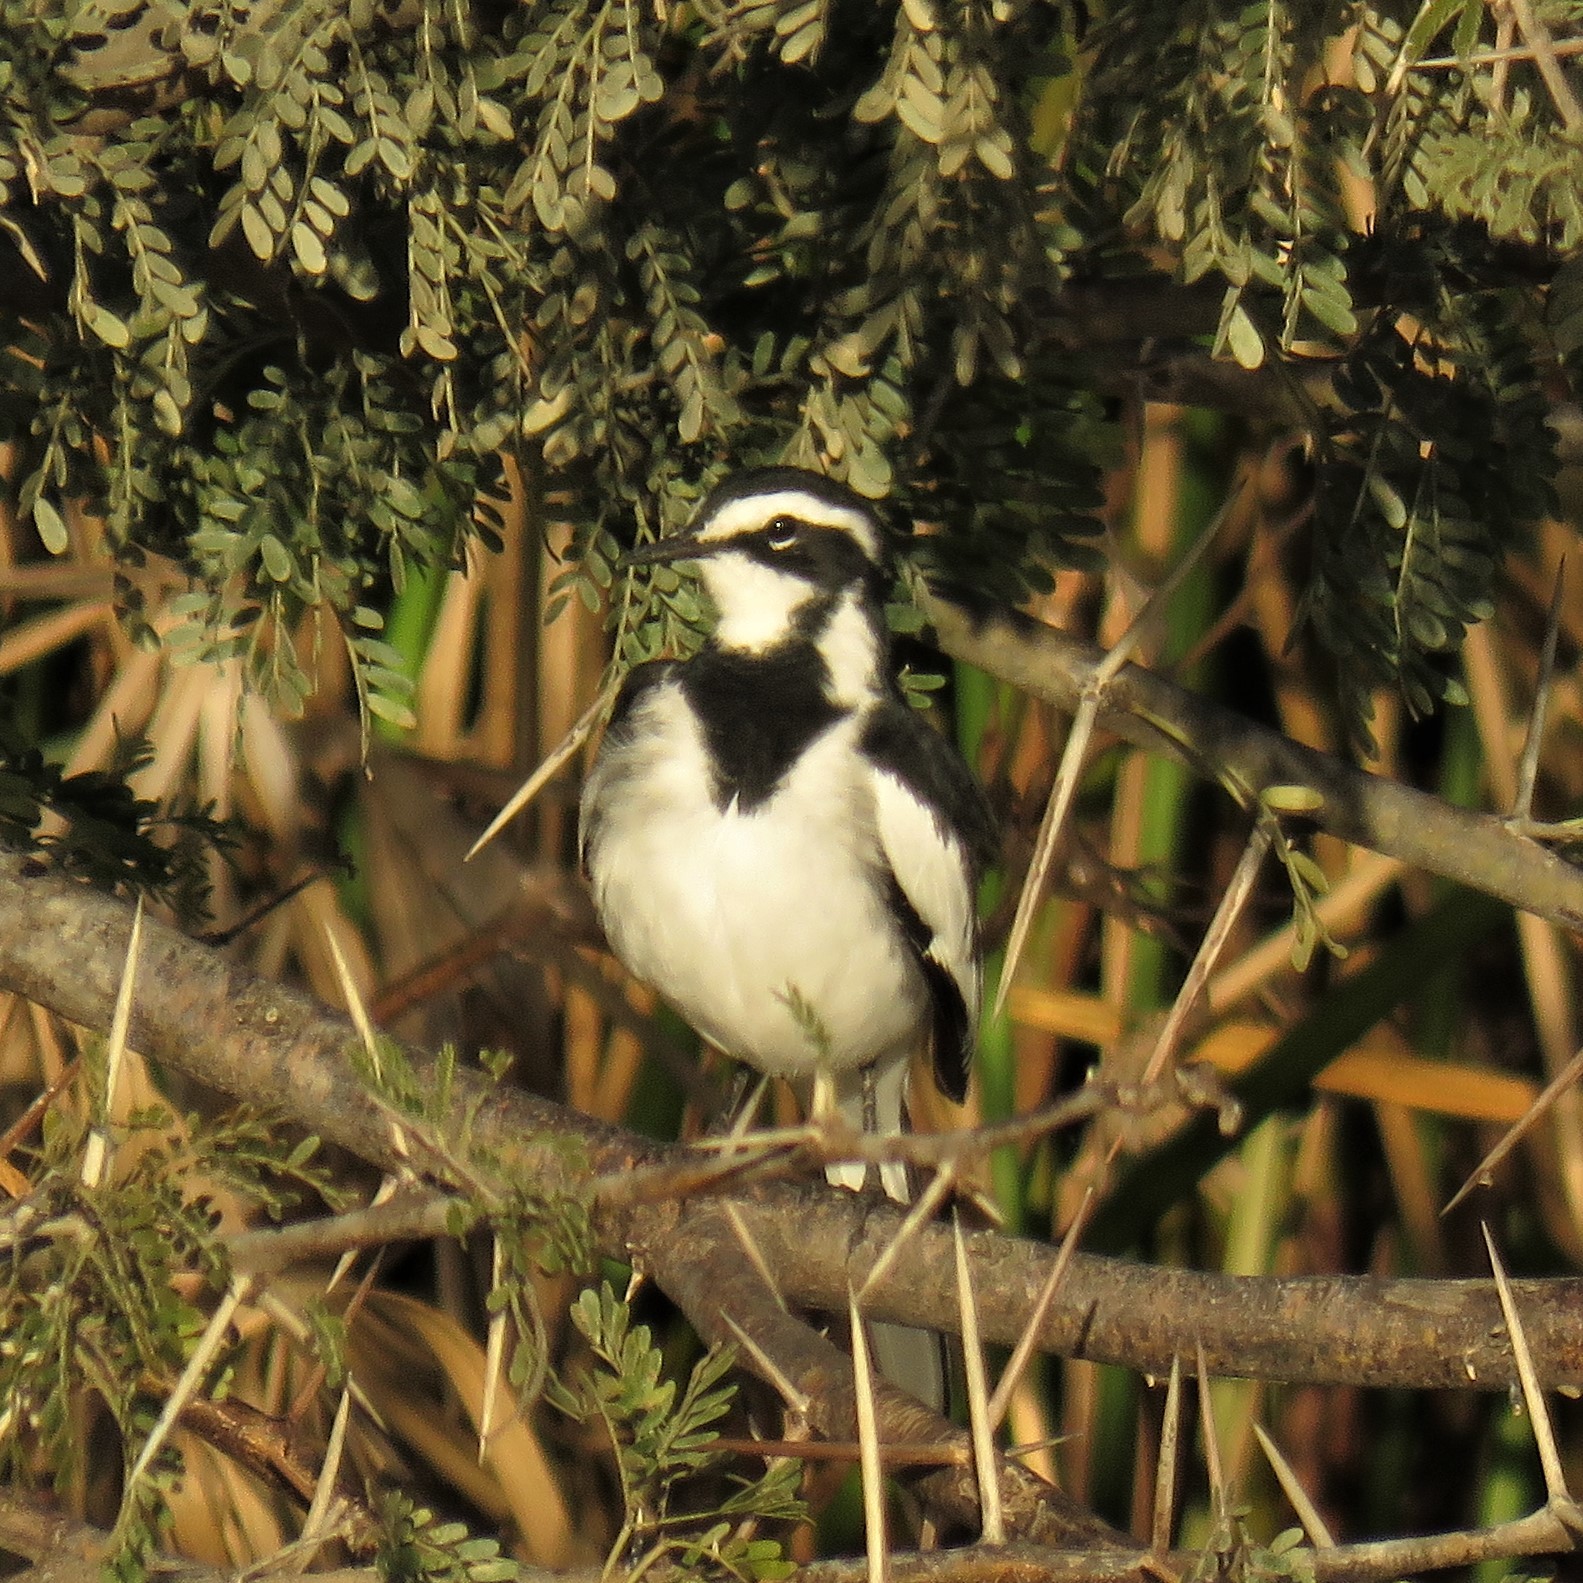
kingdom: Animalia
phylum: Chordata
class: Aves
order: Passeriformes
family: Motacillidae
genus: Motacilla
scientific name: Motacilla aguimp
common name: African pied wagtail
